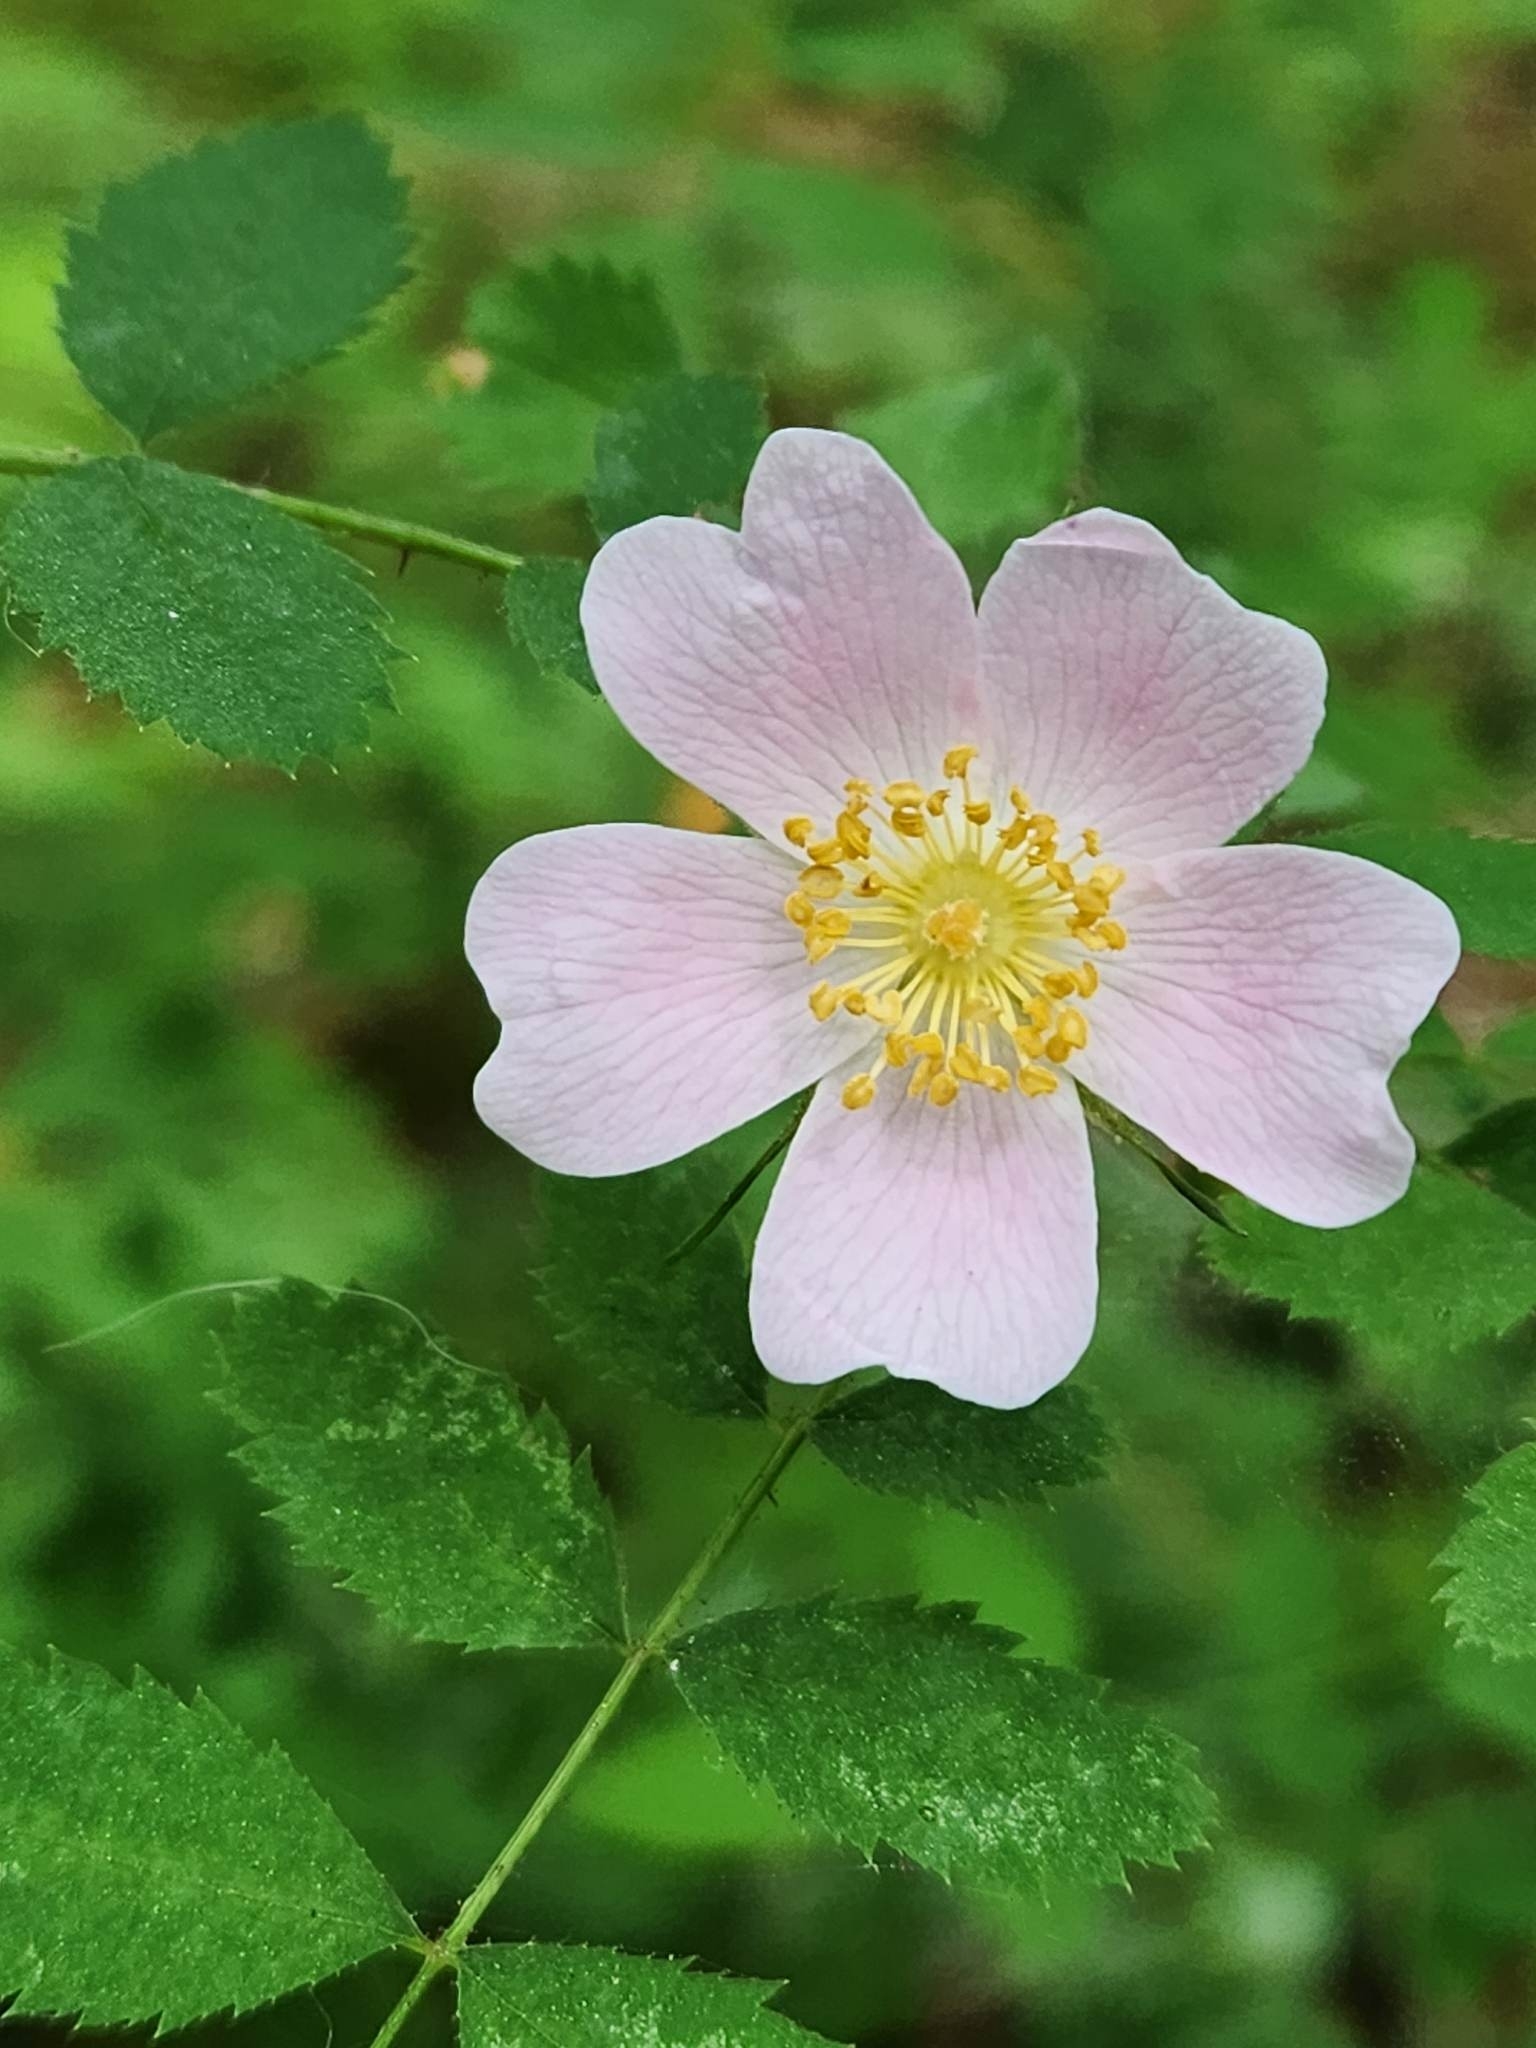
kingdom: Plantae
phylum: Tracheophyta
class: Magnoliopsida
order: Rosales
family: Rosaceae
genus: Rosa
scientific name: Rosa nutkana
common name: Nootka rose
